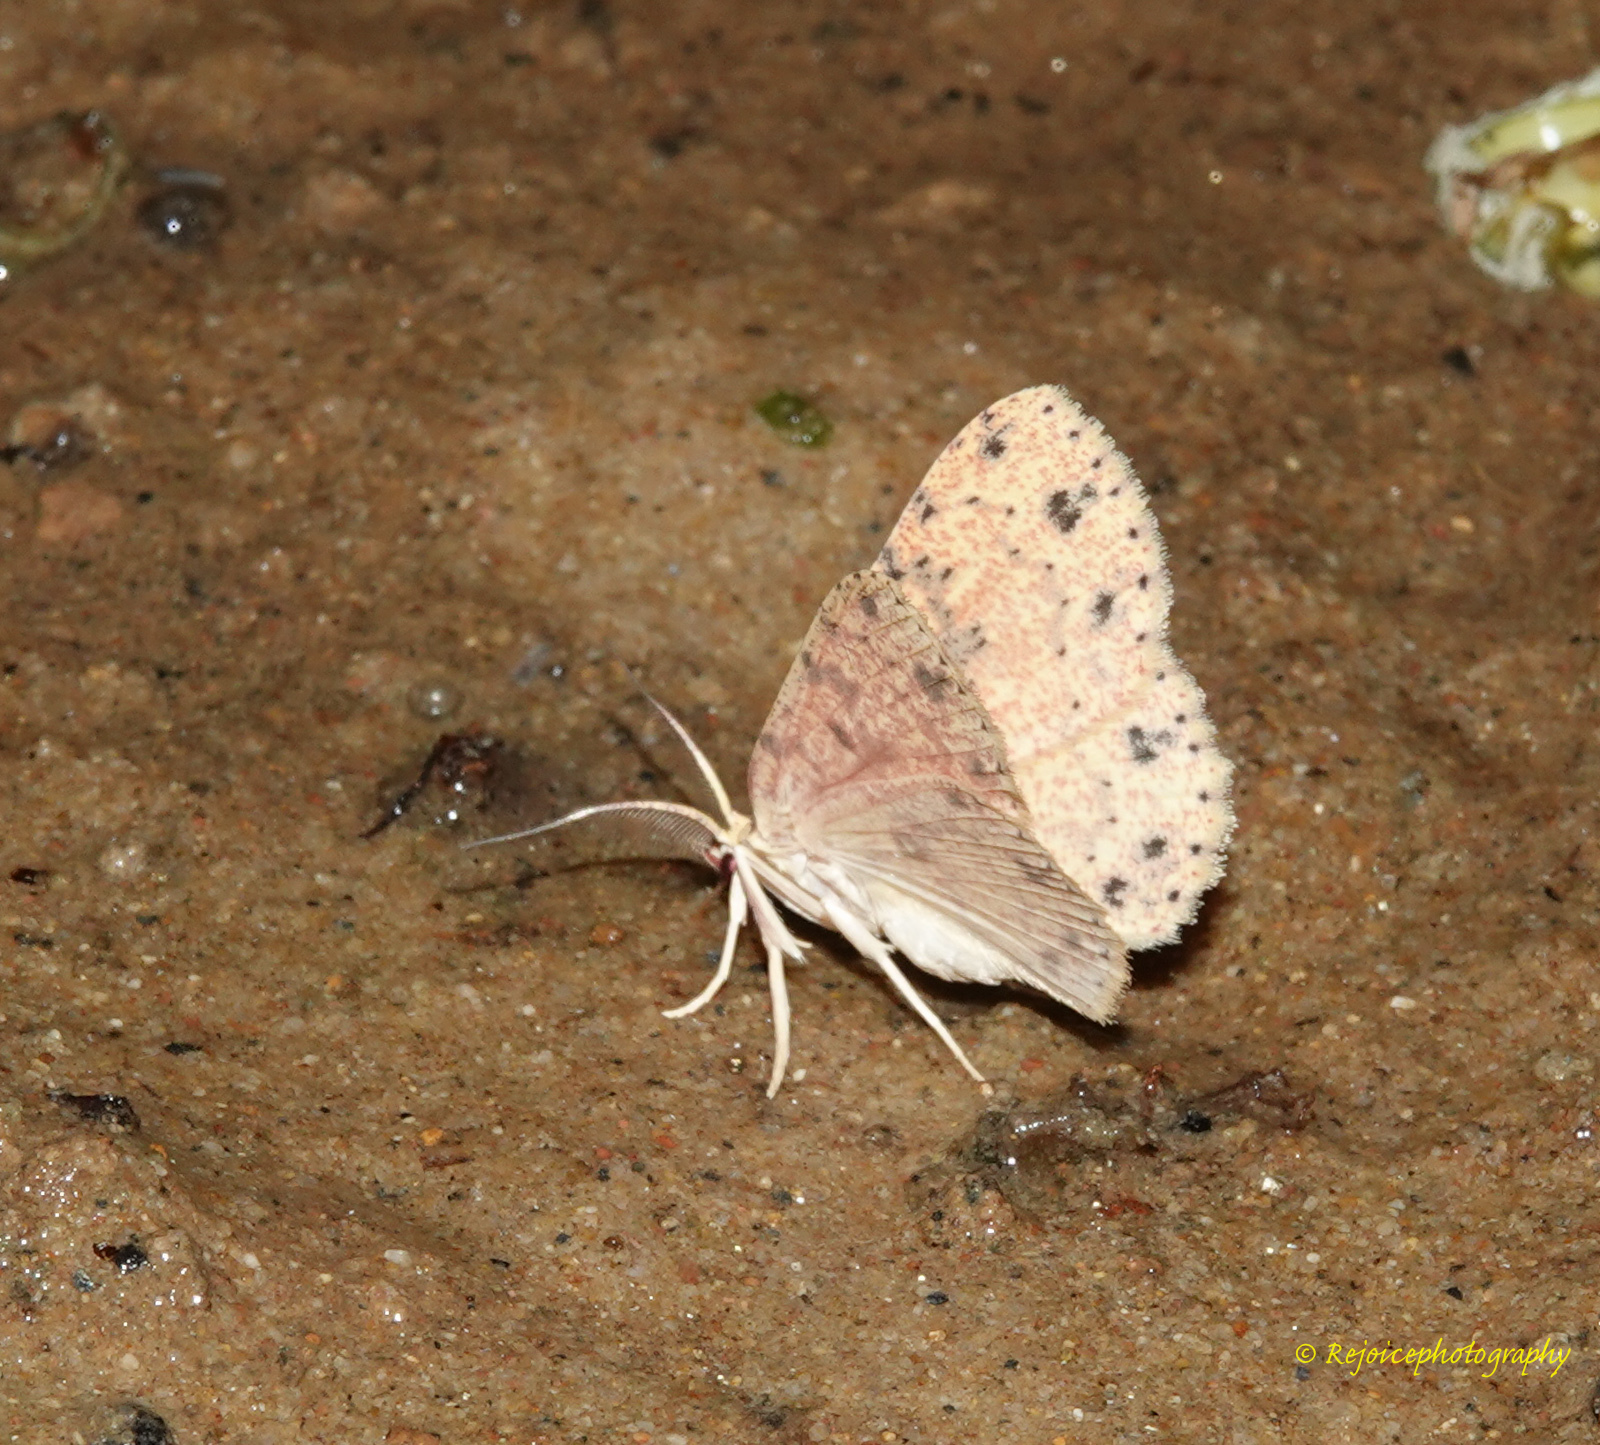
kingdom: Animalia
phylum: Arthropoda
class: Insecta
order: Lepidoptera
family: Geometridae
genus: Perixera
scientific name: Perixera jocosa
